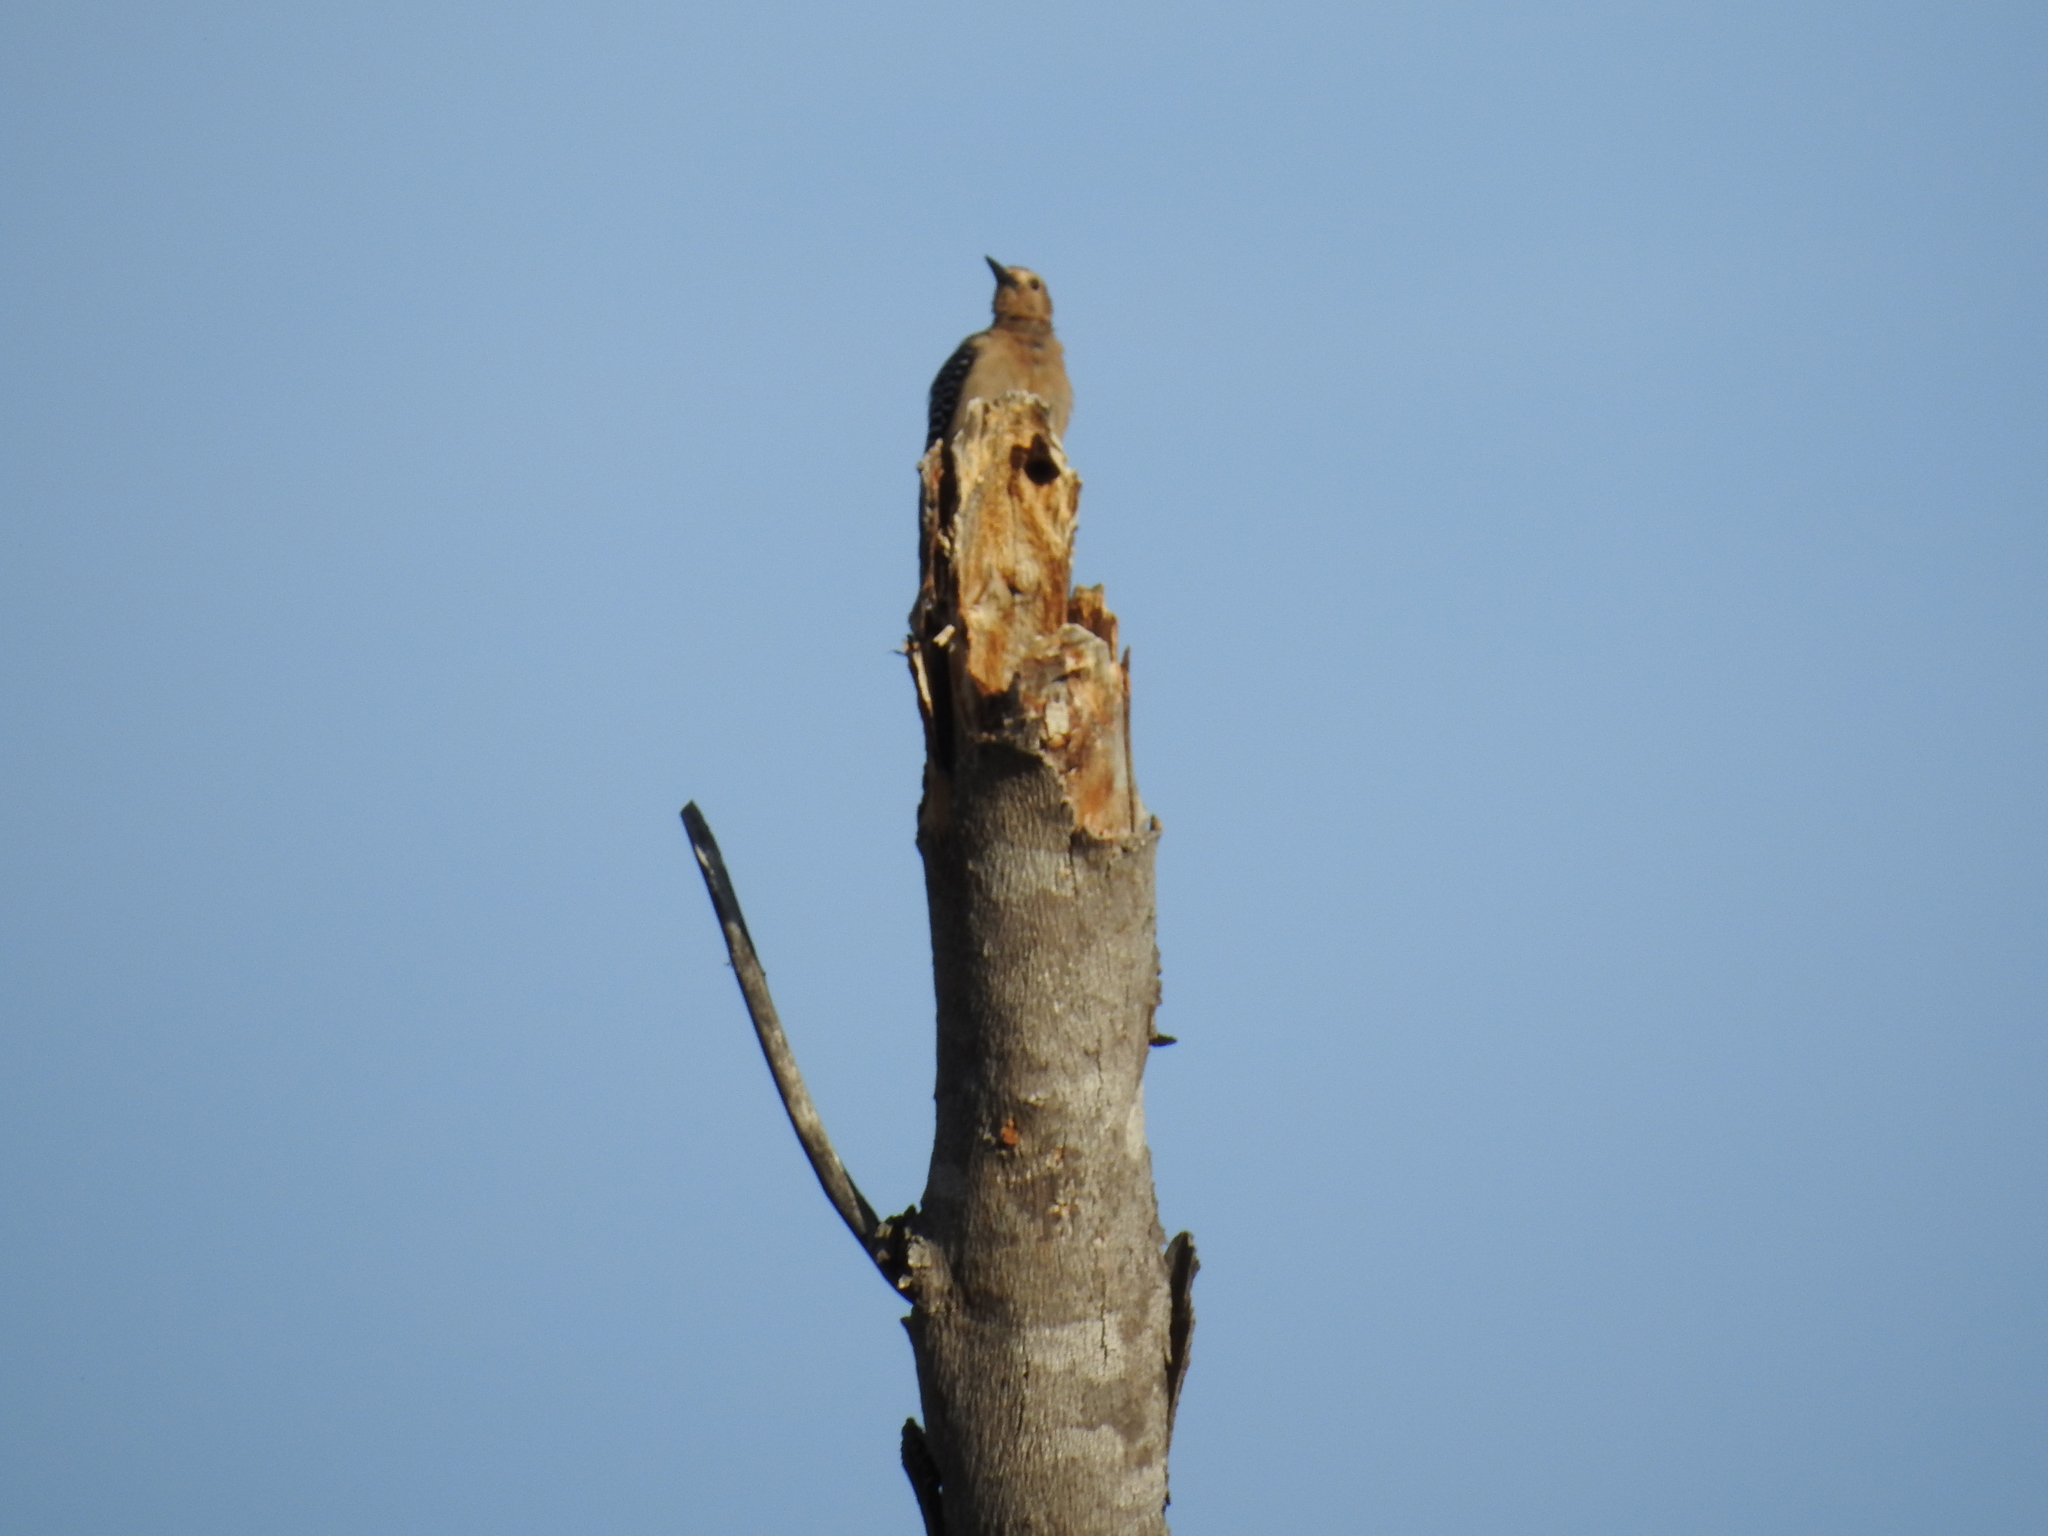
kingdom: Animalia
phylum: Chordata
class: Aves
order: Piciformes
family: Picidae
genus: Melanerpes
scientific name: Melanerpes uropygialis
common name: Gila woodpecker
